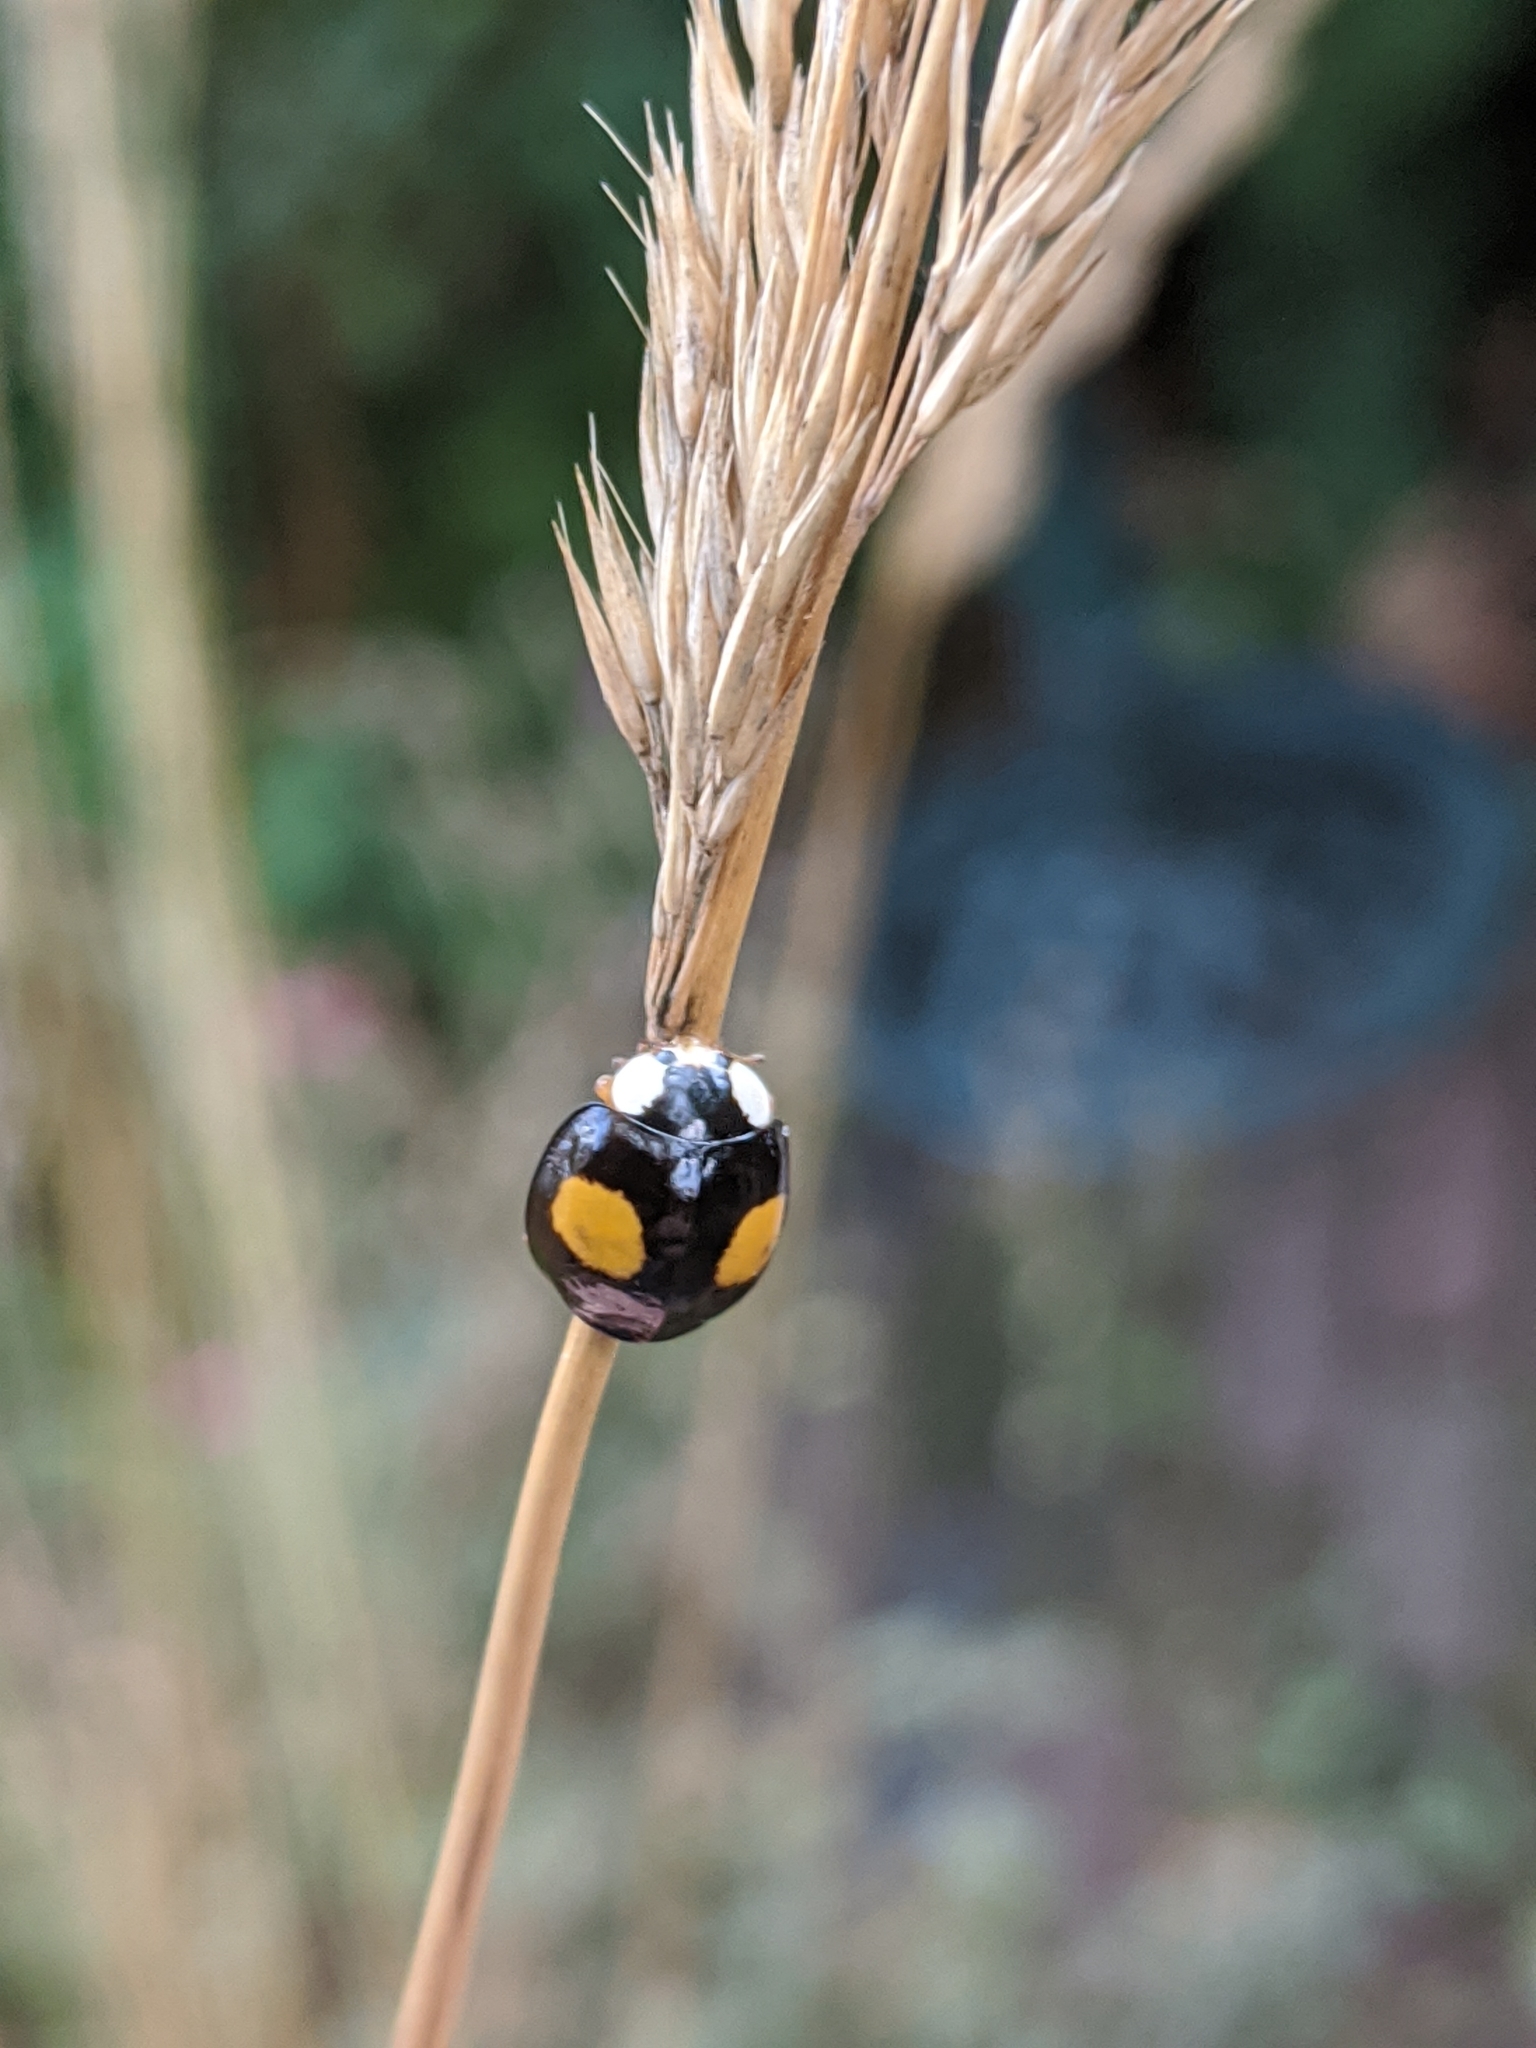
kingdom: Animalia
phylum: Arthropoda
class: Insecta
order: Coleoptera
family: Coccinellidae
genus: Harmonia
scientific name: Harmonia axyridis
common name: Harlequin ladybird
